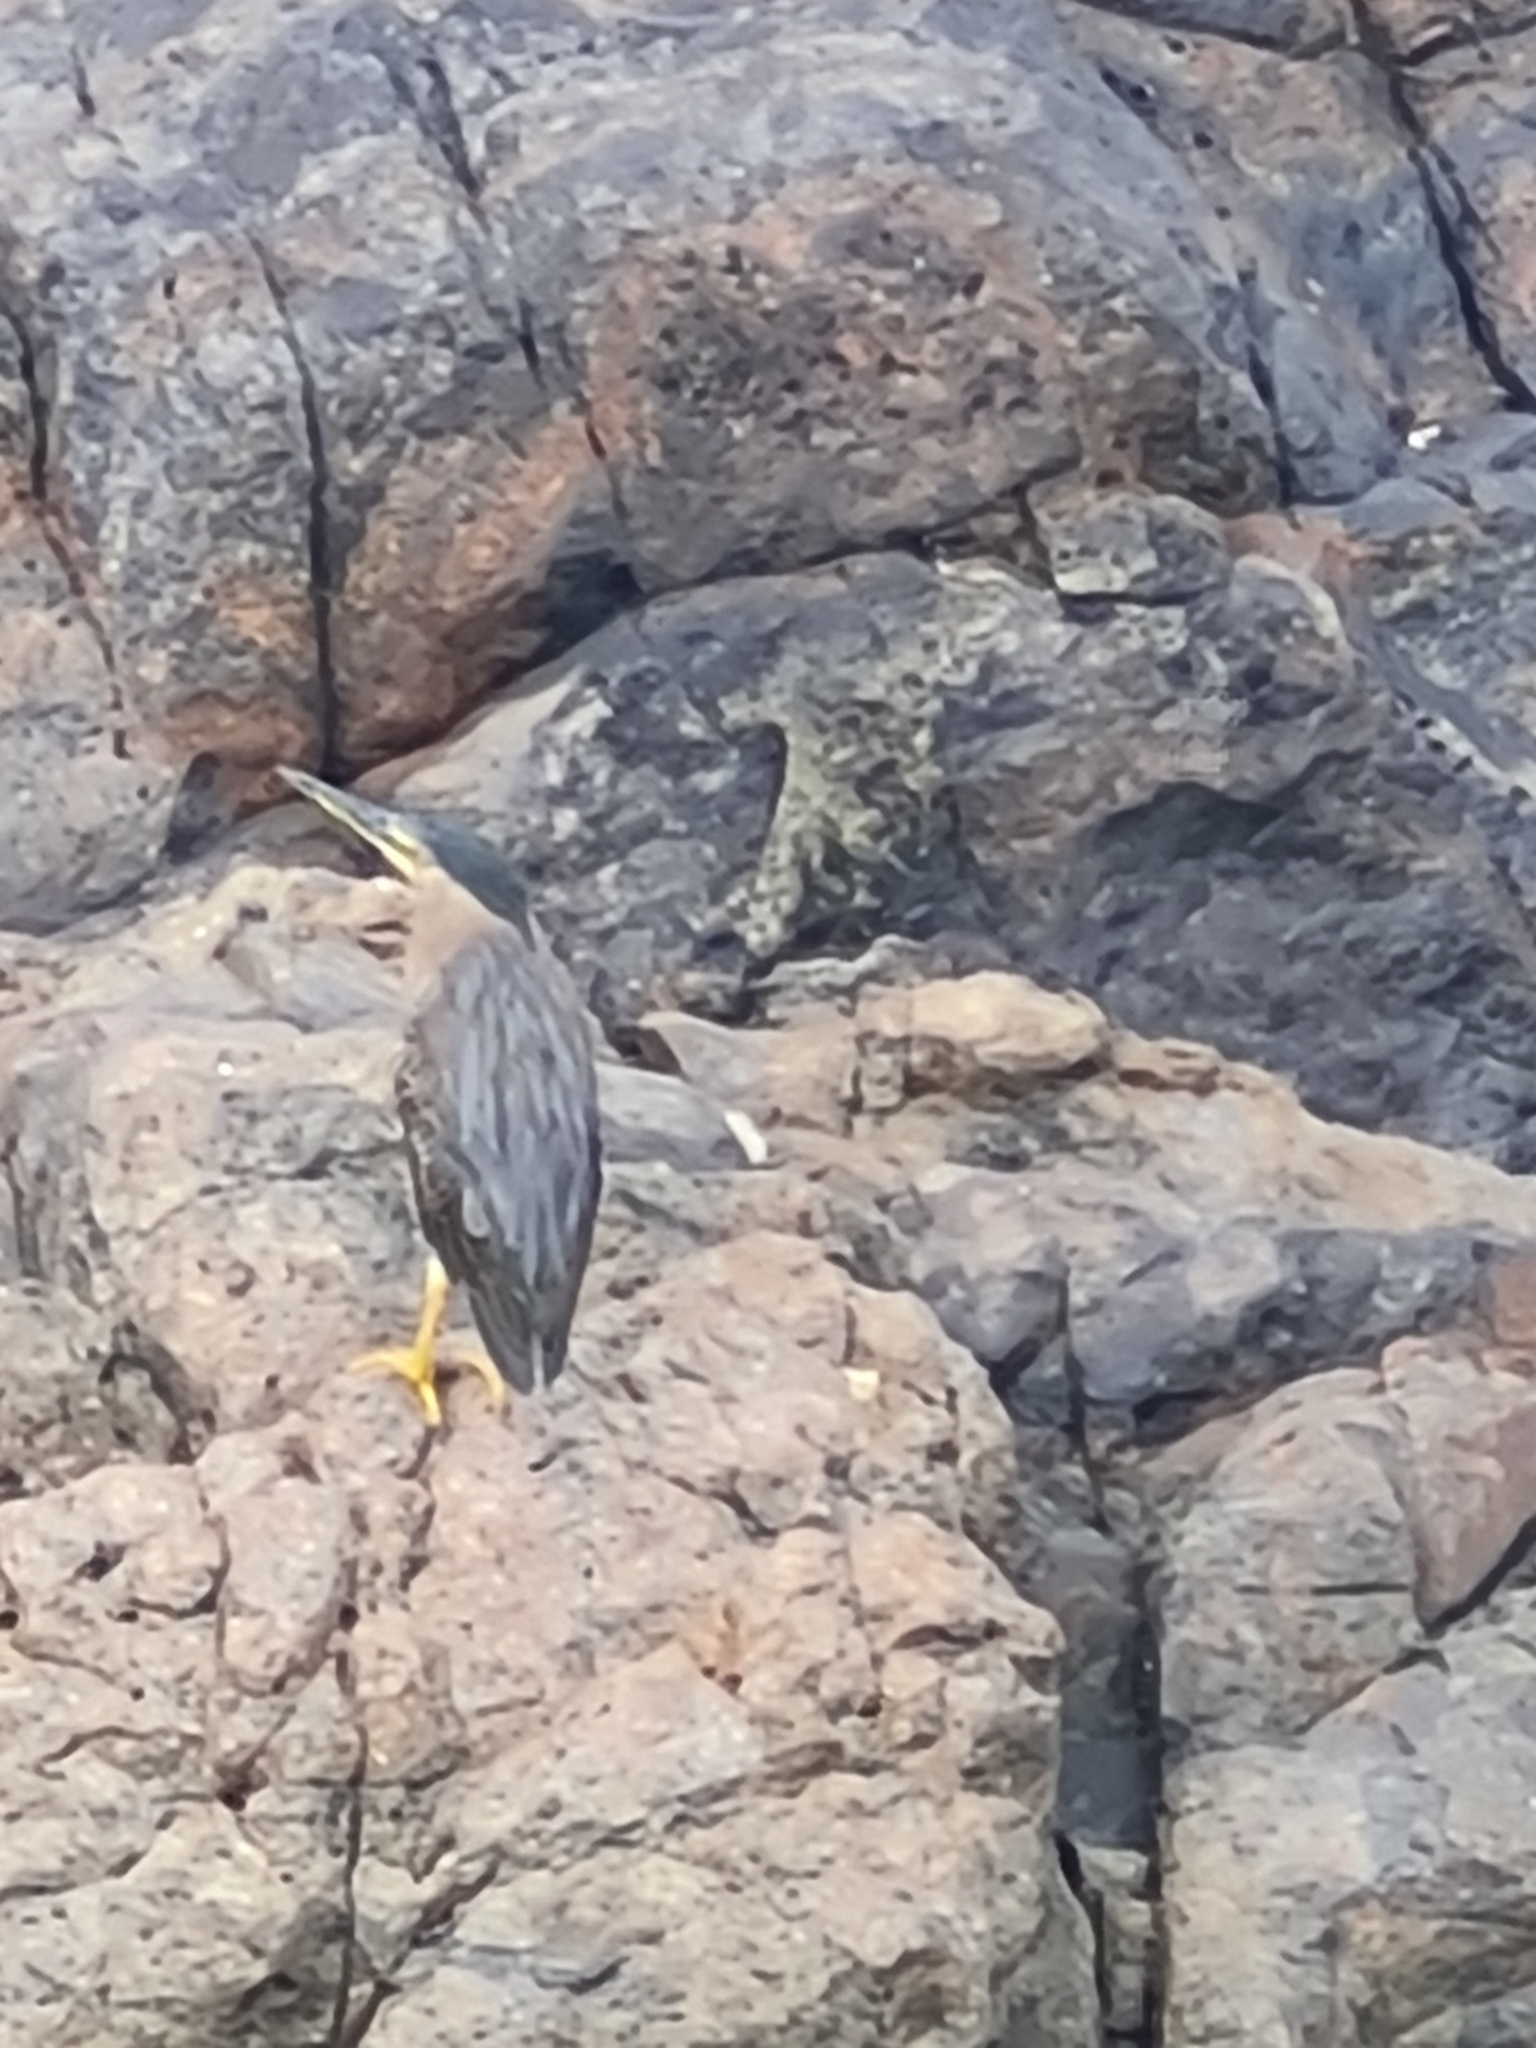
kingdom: Animalia
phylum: Chordata
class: Aves
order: Pelecaniformes
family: Ardeidae
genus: Butorides
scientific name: Butorides striata
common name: Striated heron
